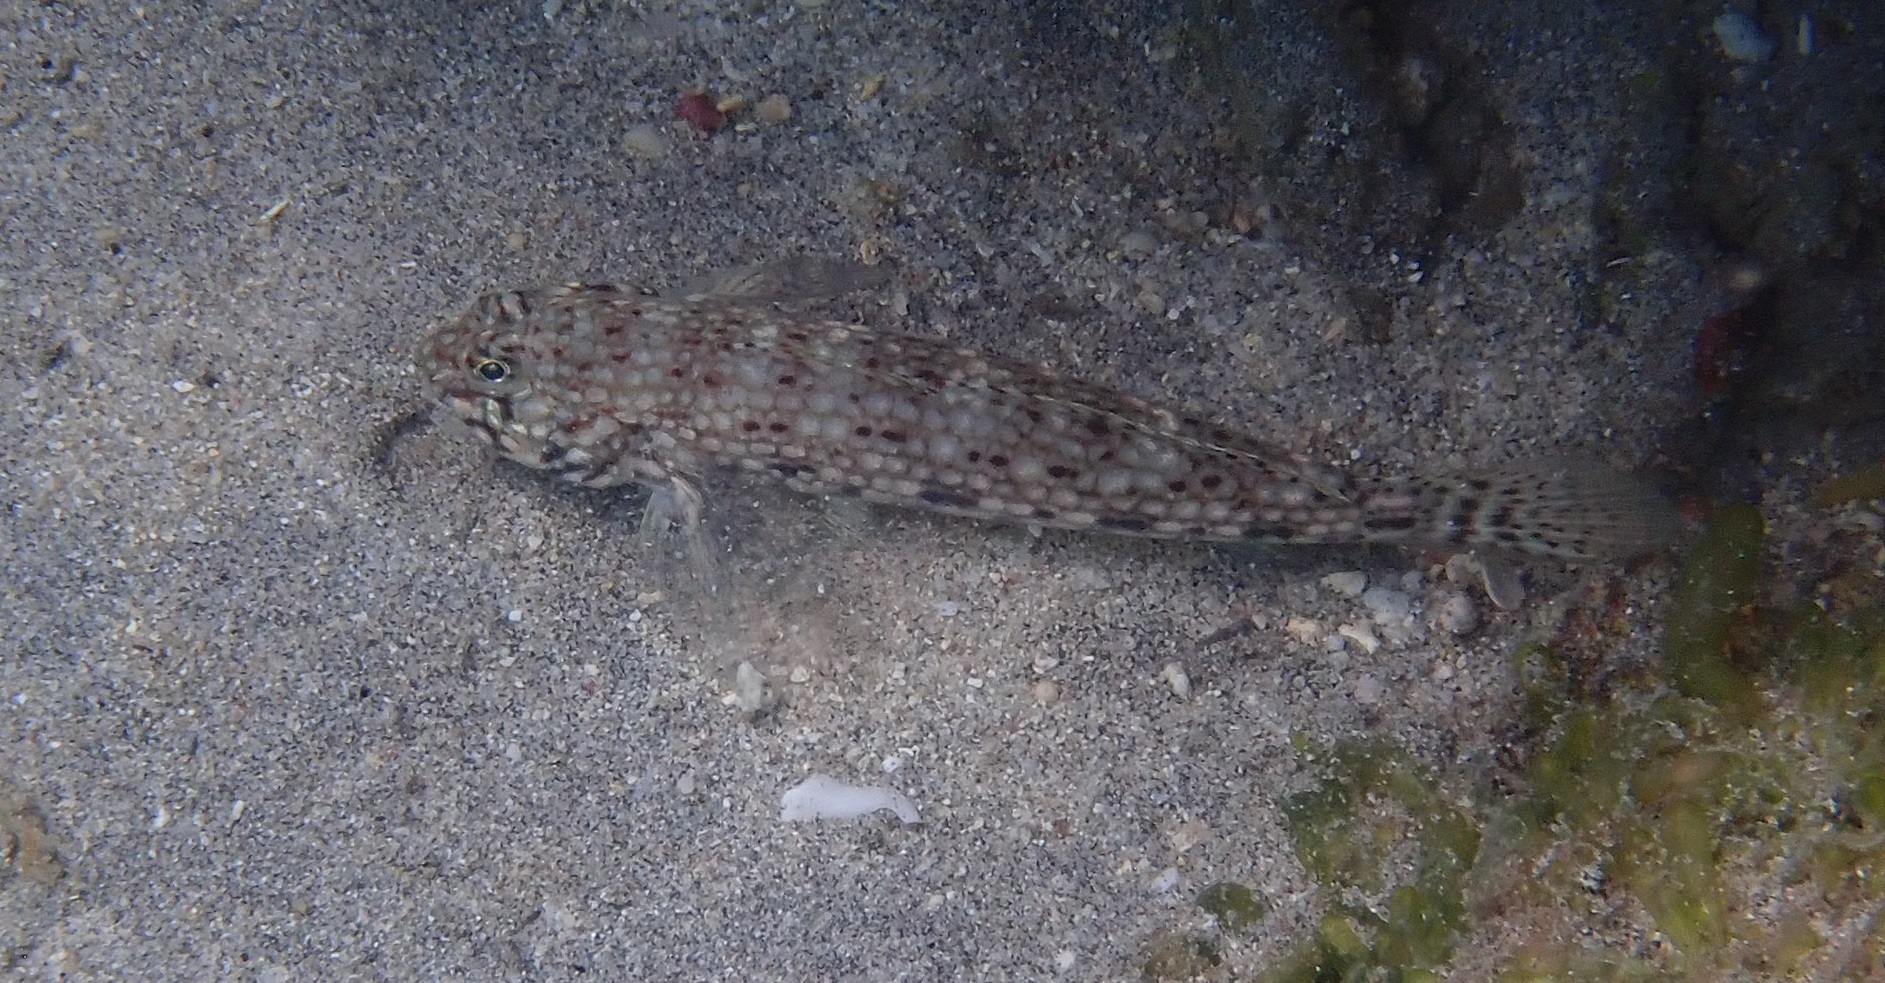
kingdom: Animalia
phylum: Chordata
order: Perciformes
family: Gobiidae
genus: Istigobius
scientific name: Istigobius decoratus
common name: Decorated goby
